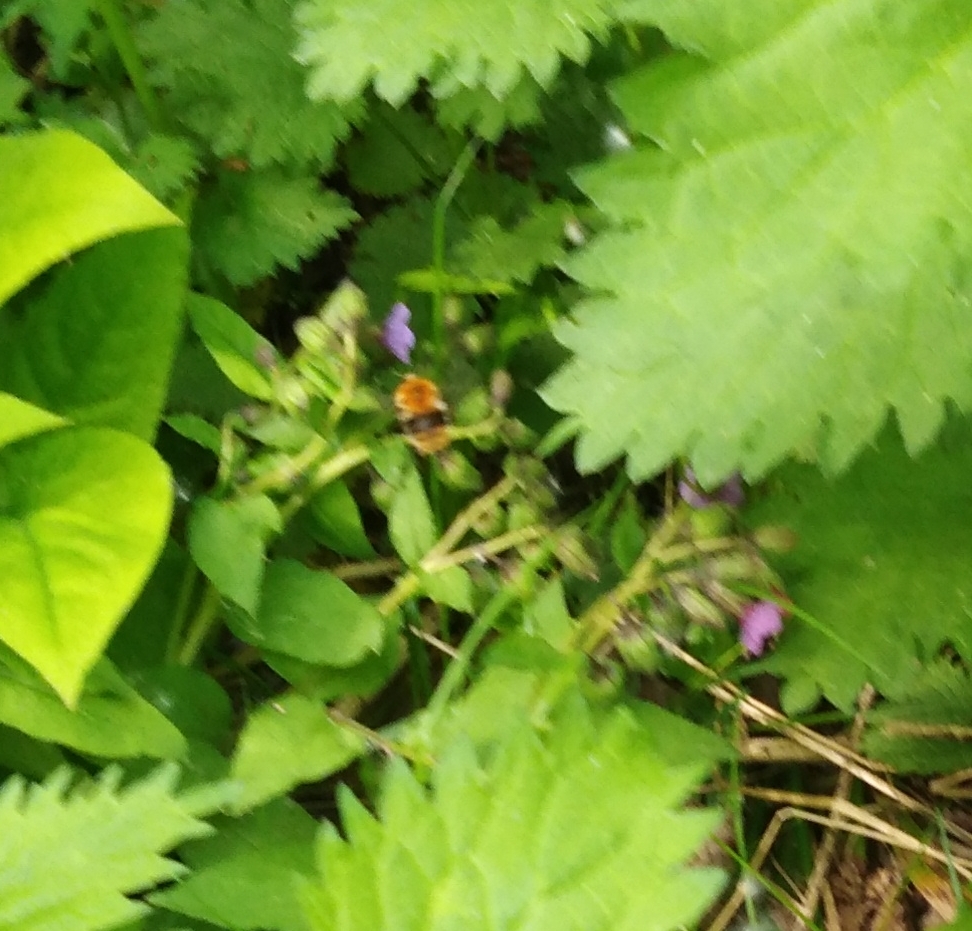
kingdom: Animalia
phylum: Arthropoda
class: Insecta
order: Hymenoptera
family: Apidae
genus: Bombus
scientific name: Bombus pascuorum
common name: Common carder bee
